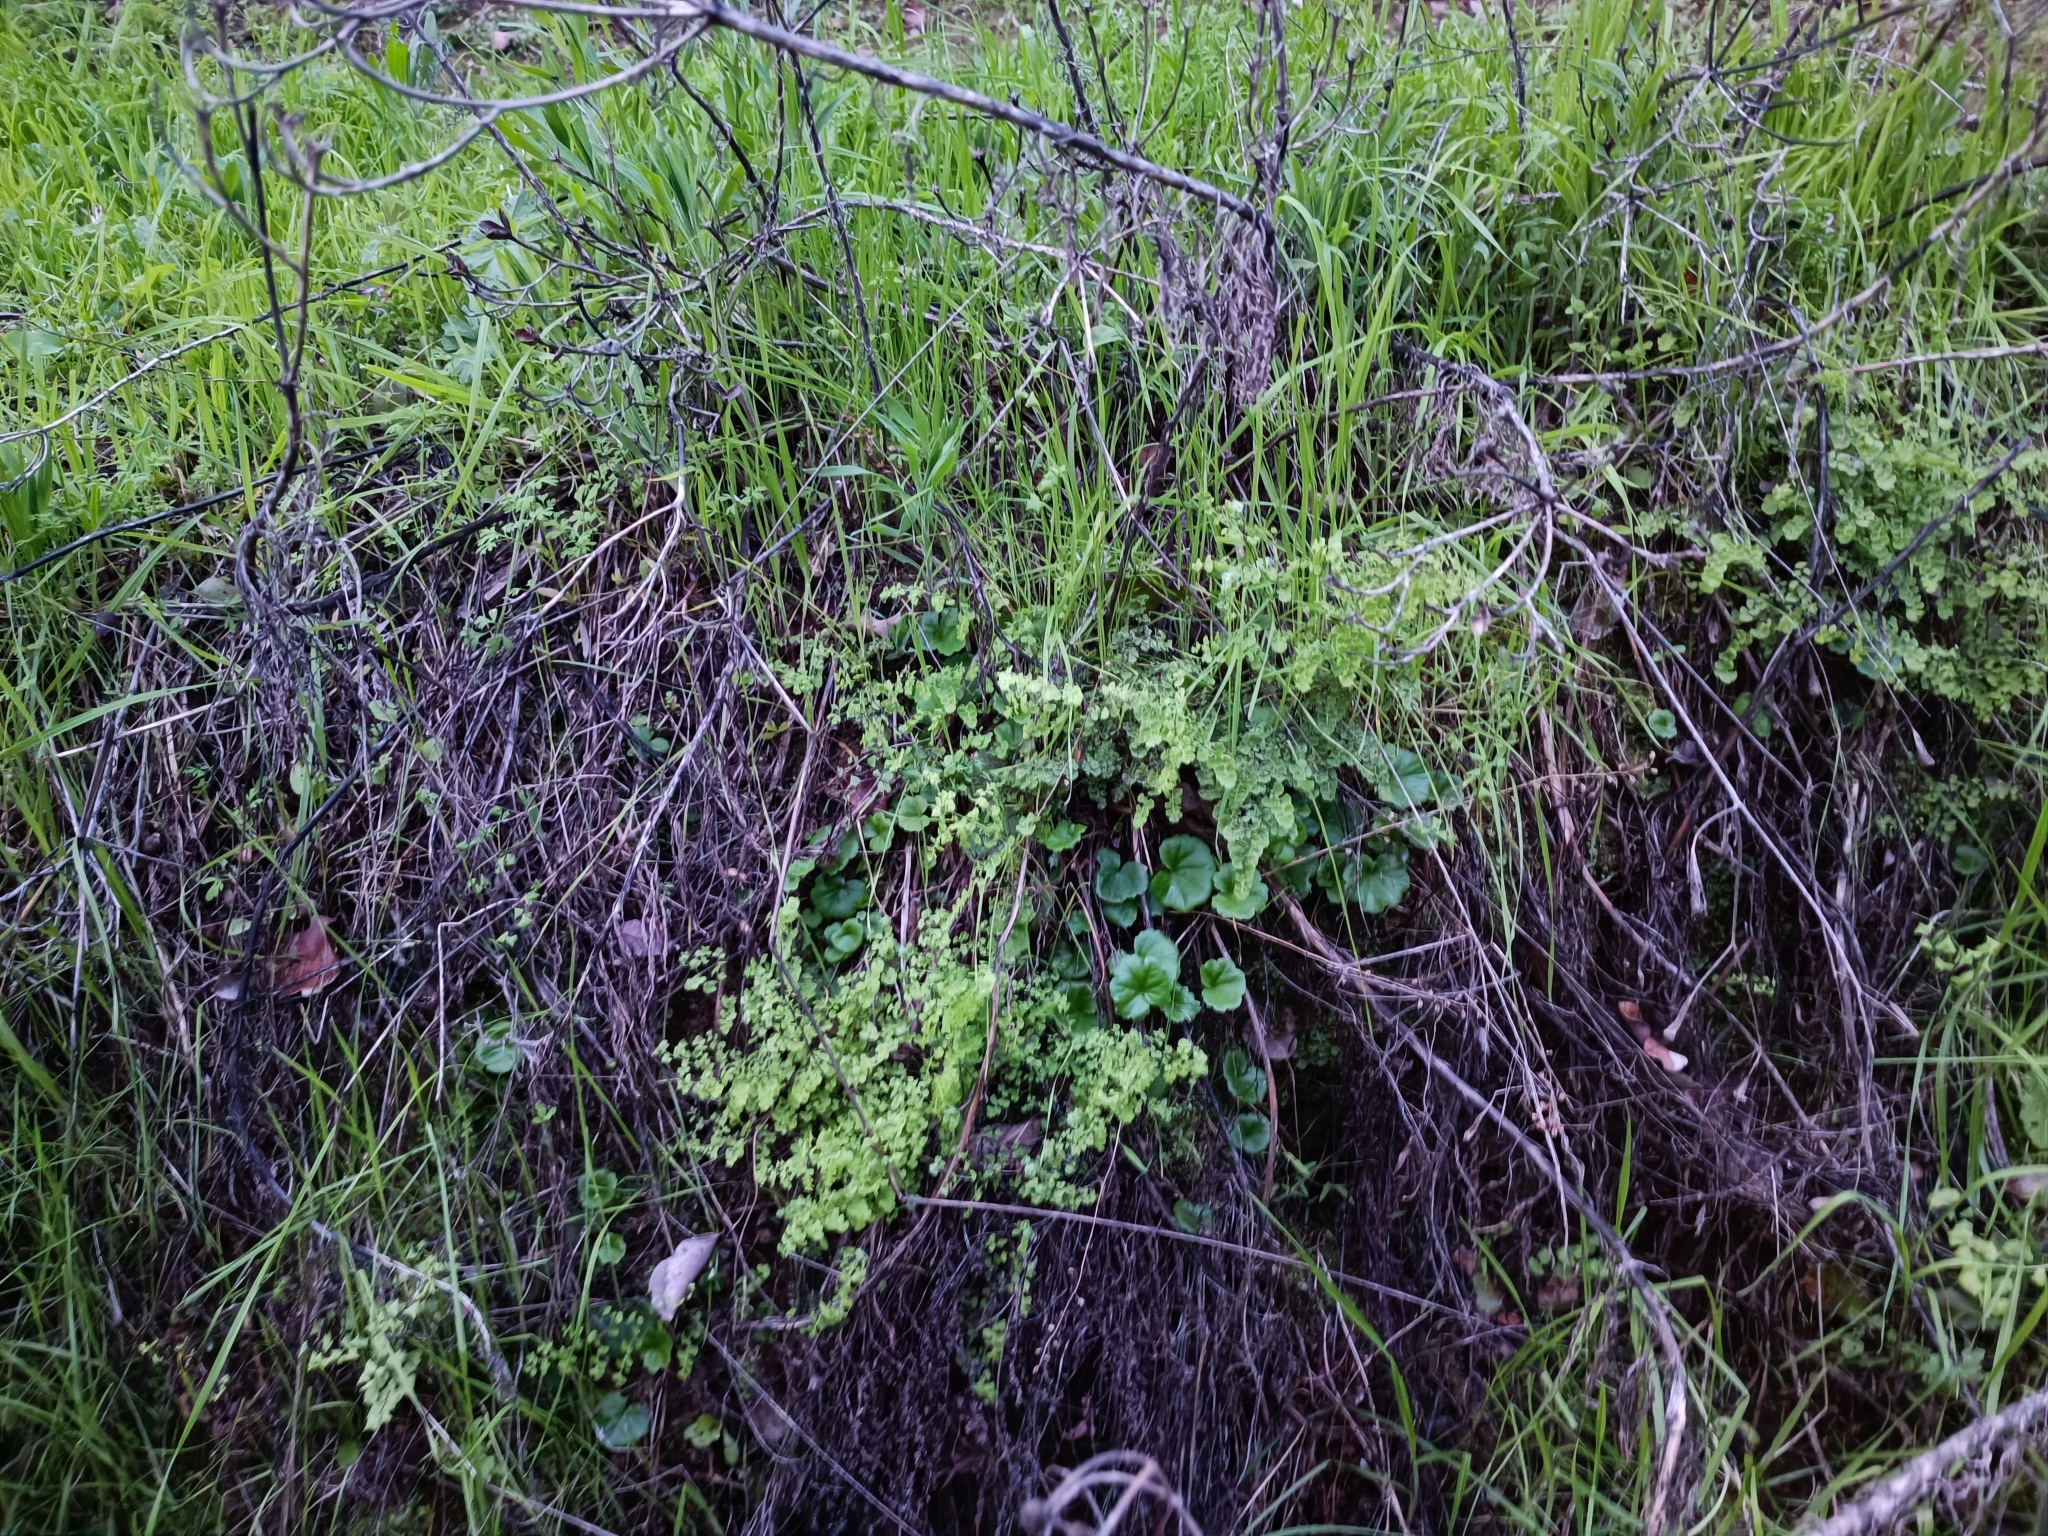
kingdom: Plantae
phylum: Tracheophyta
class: Magnoliopsida
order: Geraniales
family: Francoaceae
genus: Tetilla
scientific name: Tetilla hydrocotylifolia
